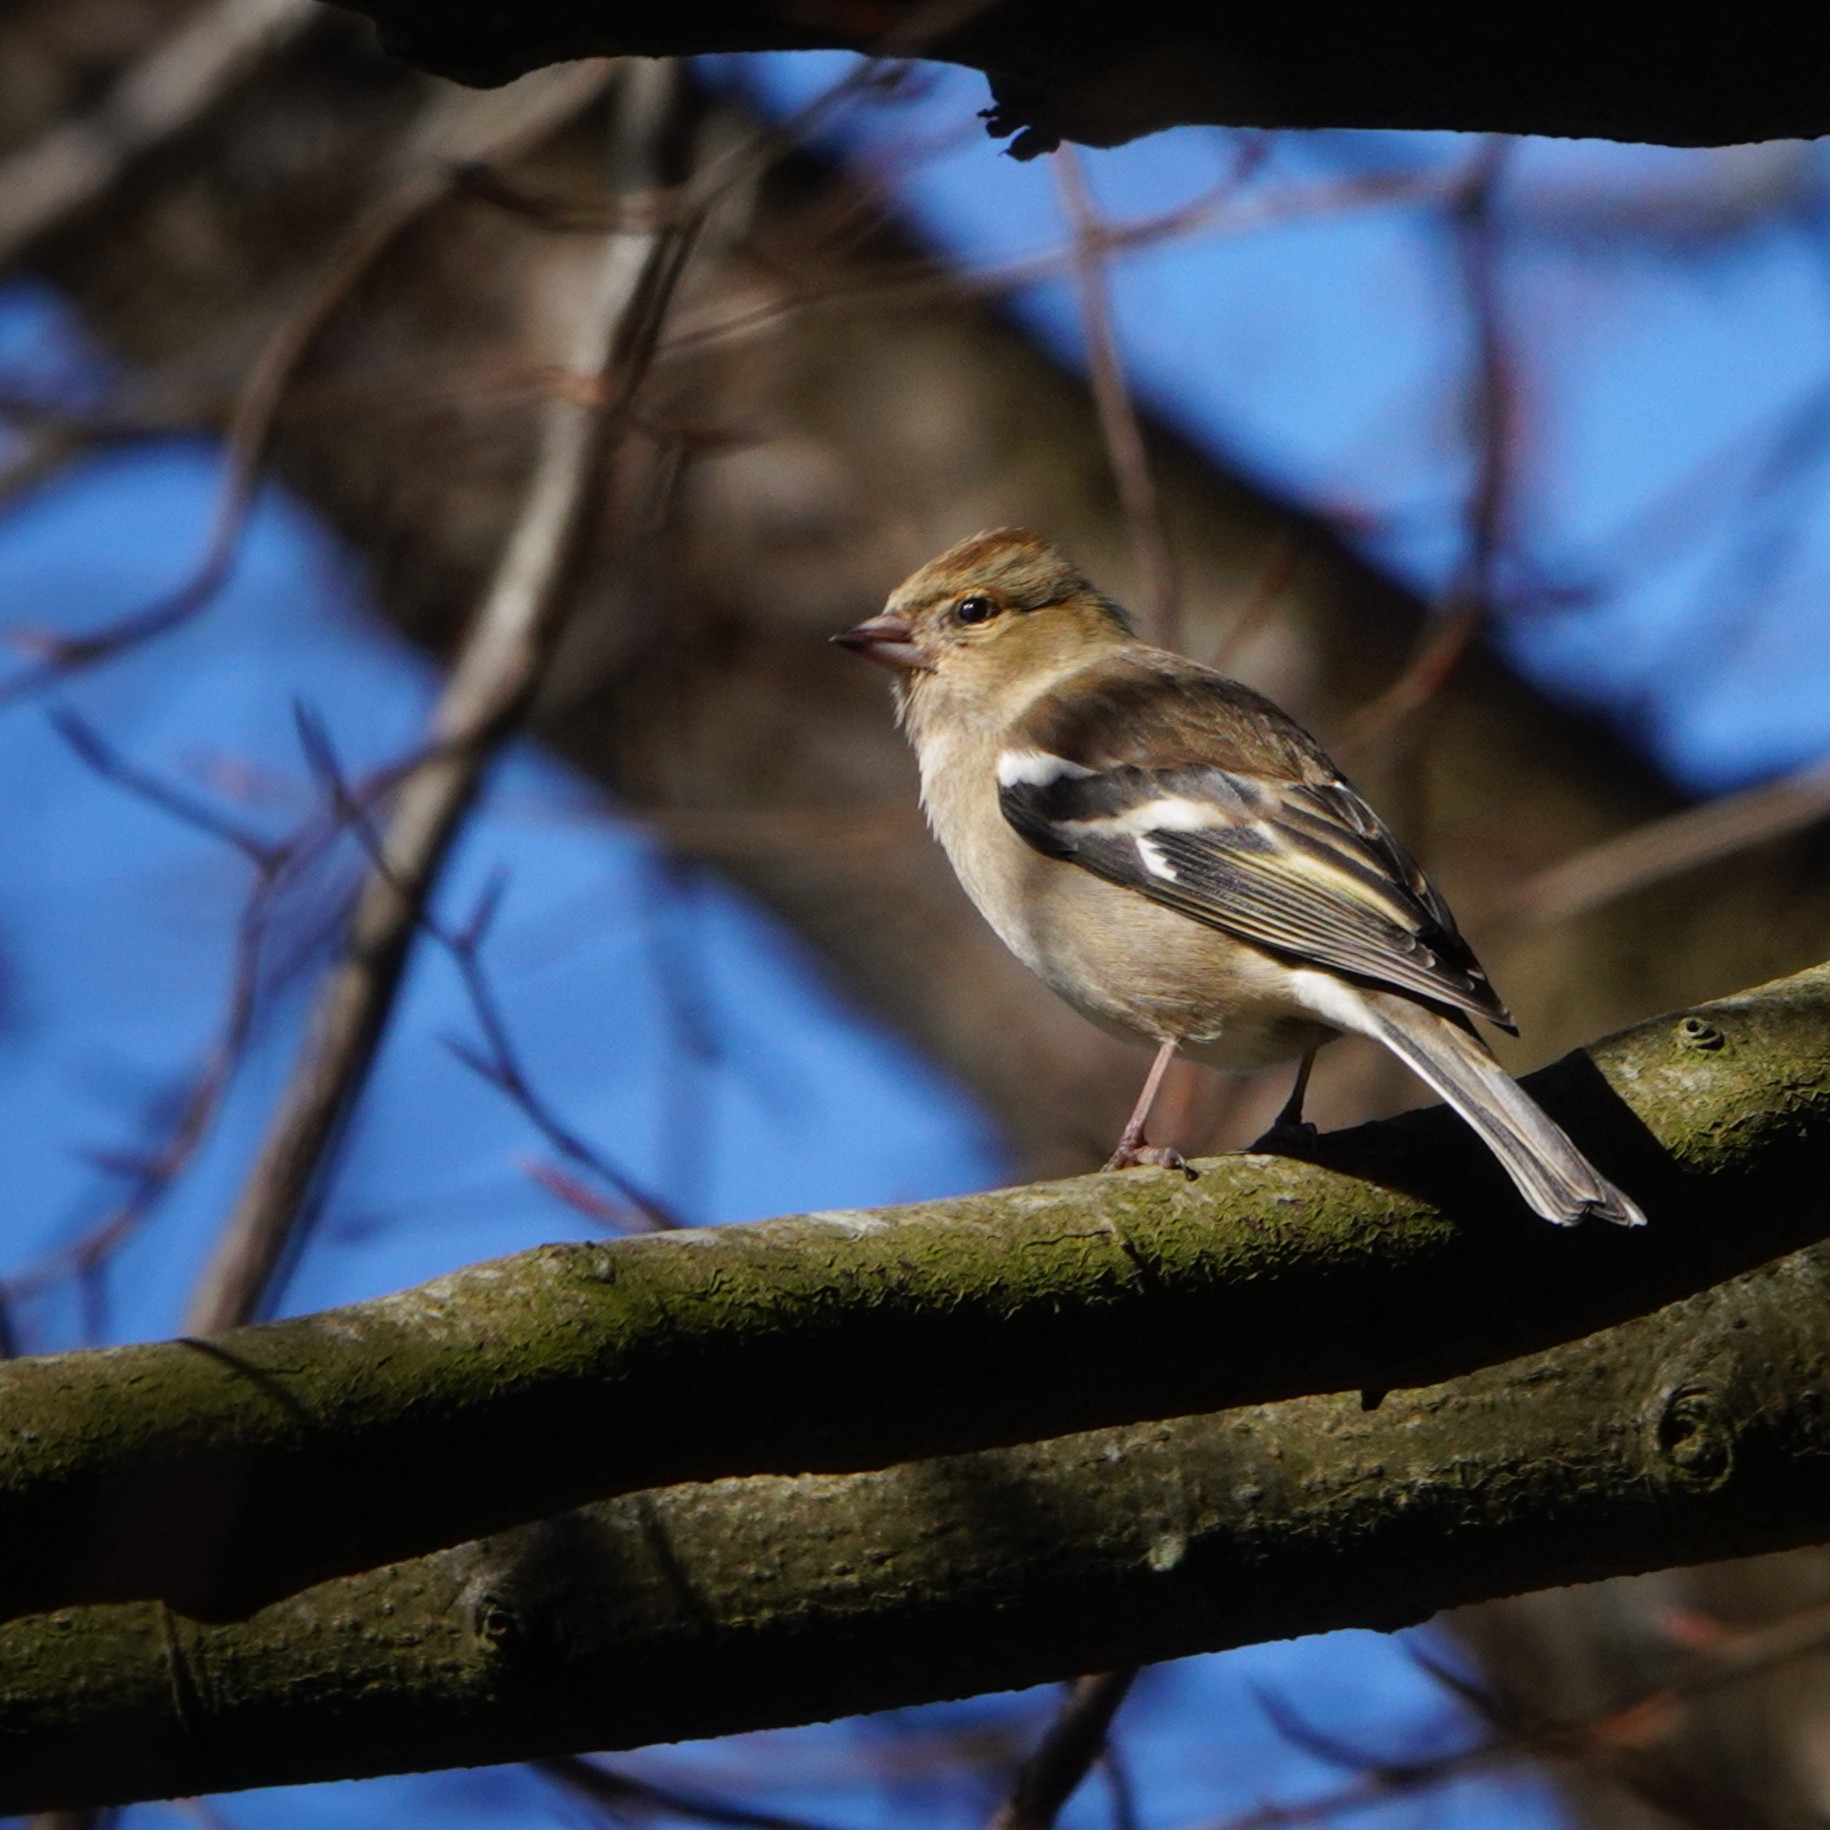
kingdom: Animalia
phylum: Chordata
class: Aves
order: Passeriformes
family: Fringillidae
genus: Fringilla
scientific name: Fringilla coelebs
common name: Common chaffinch
